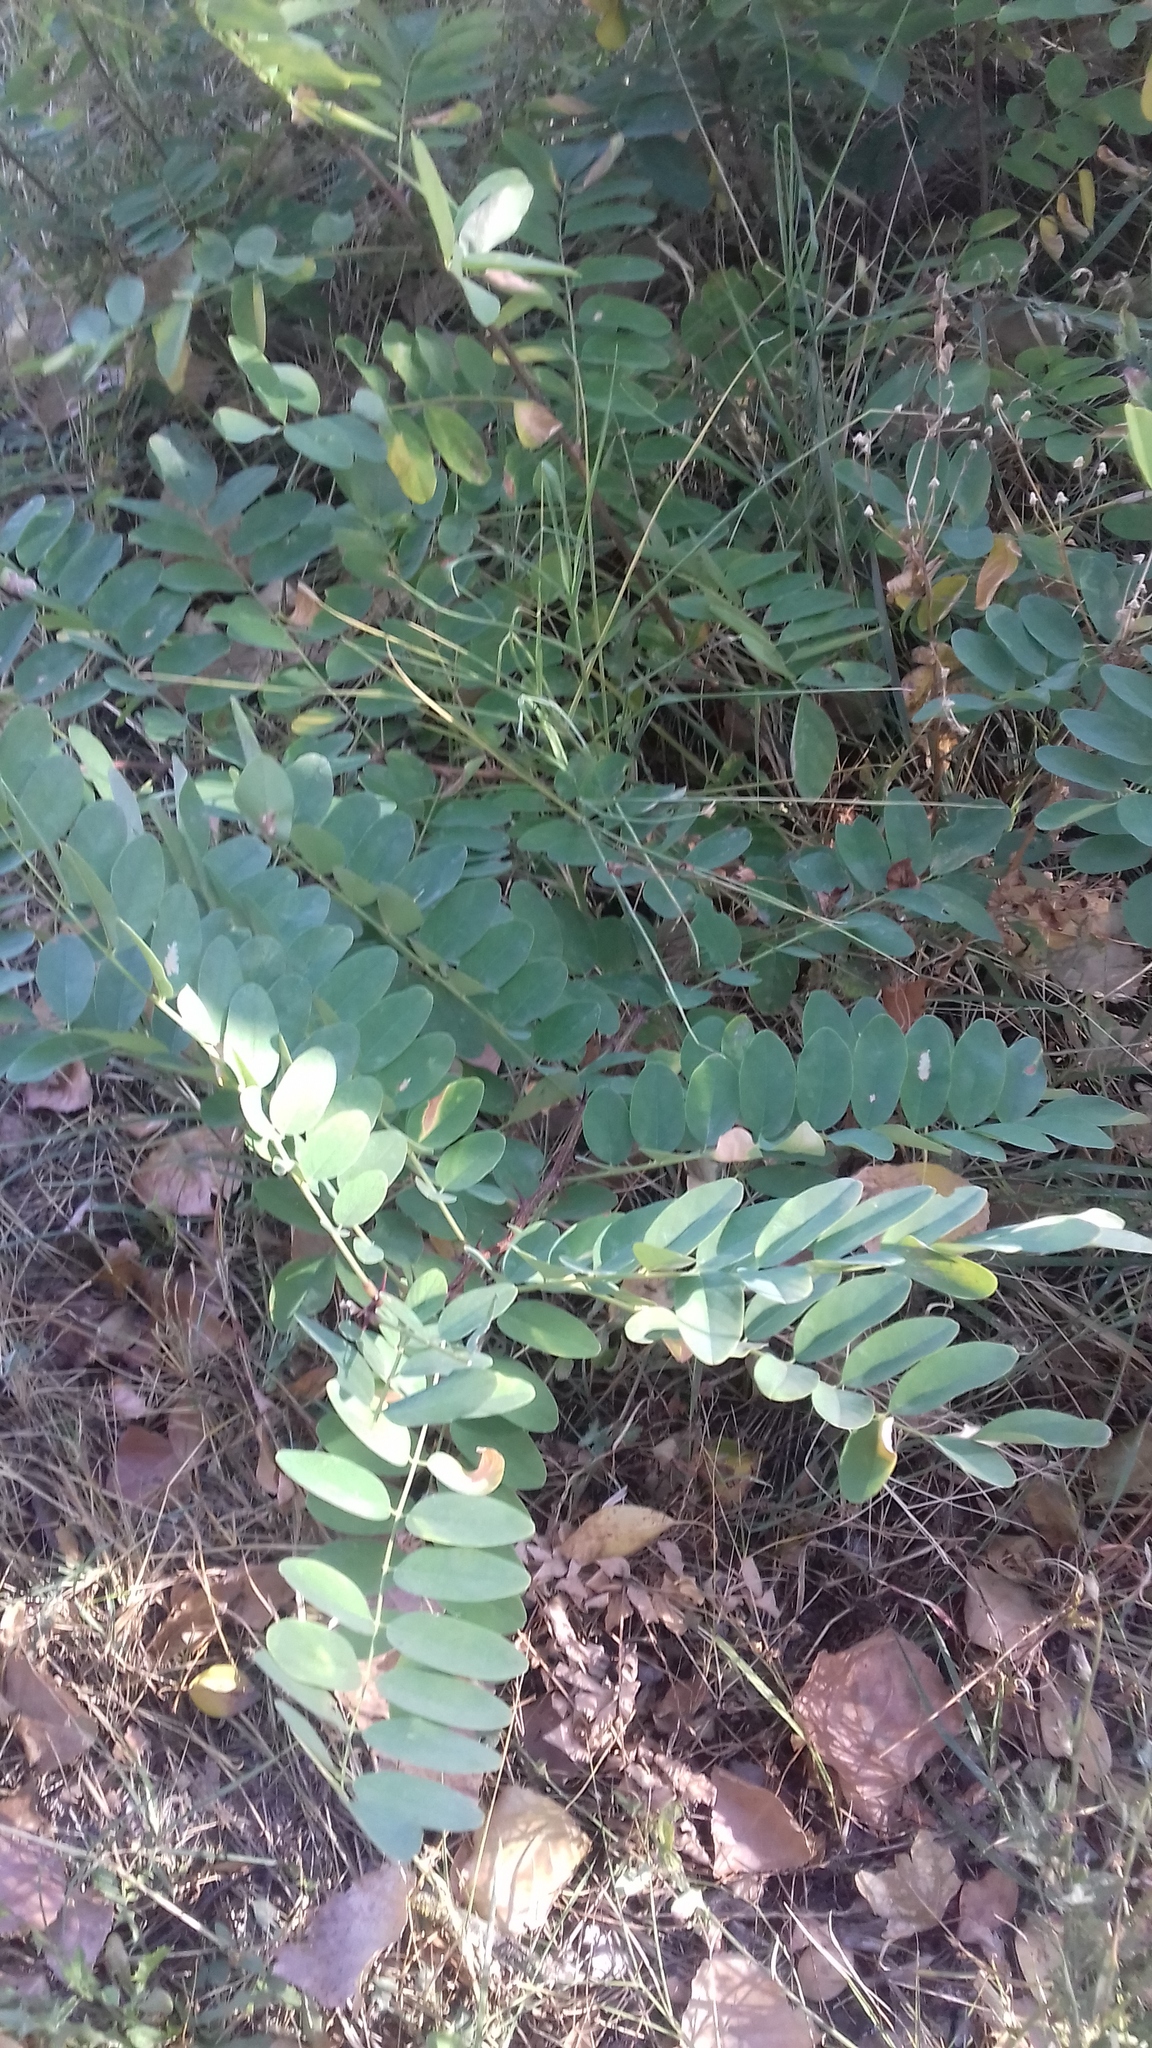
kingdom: Plantae
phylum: Tracheophyta
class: Magnoliopsida
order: Fabales
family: Fabaceae
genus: Robinia
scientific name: Robinia pseudoacacia
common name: Black locust
